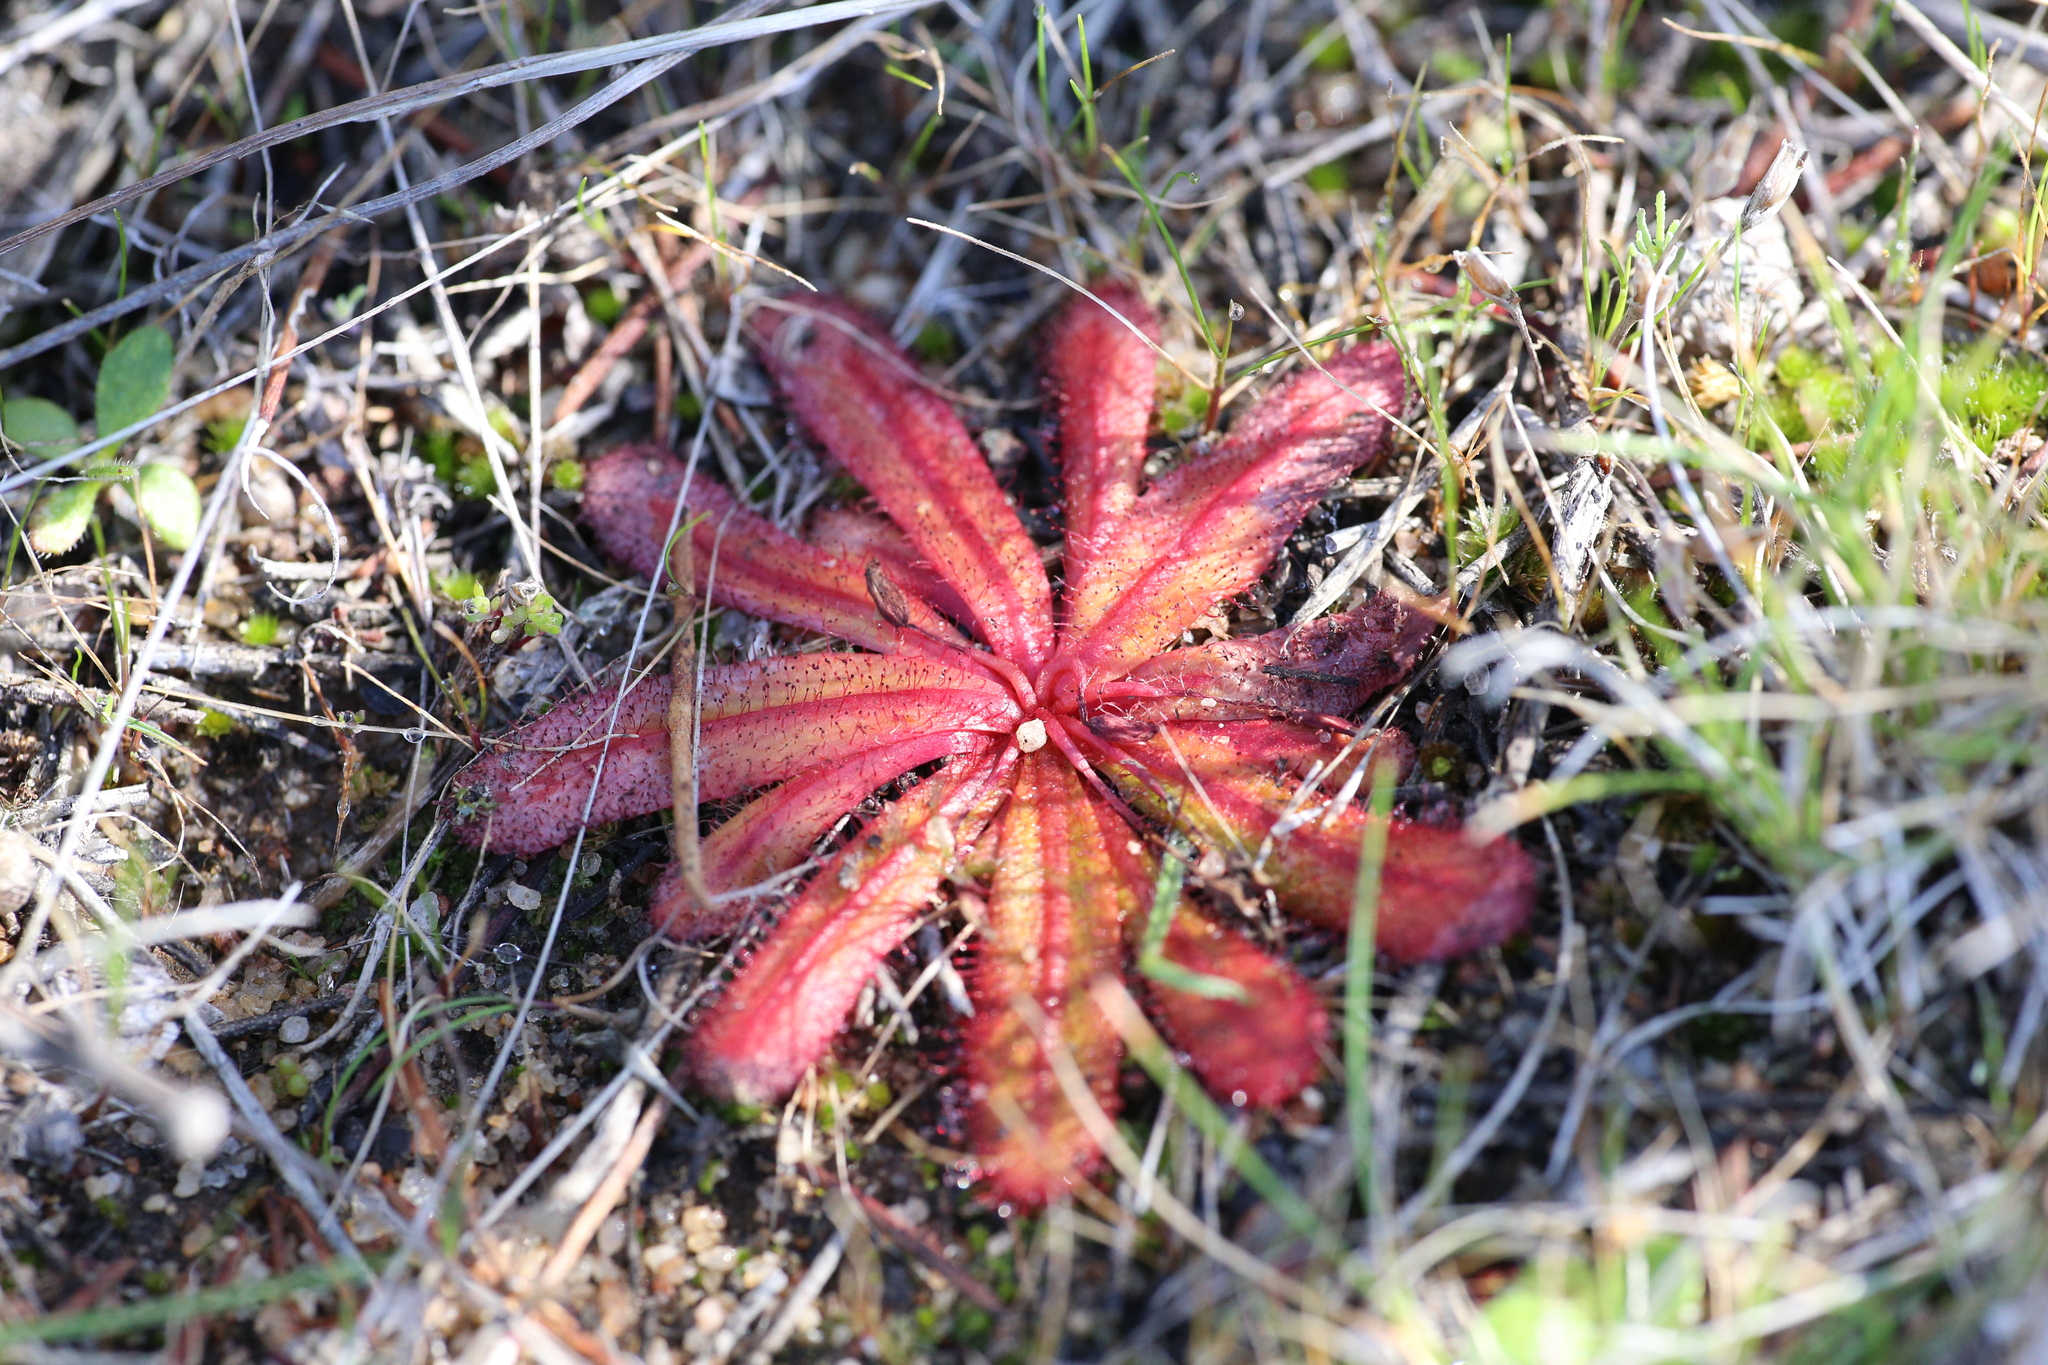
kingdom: Plantae
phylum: Tracheophyta
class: Magnoliopsida
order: Caryophyllales
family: Droseraceae
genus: Drosera
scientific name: Drosera bulbosa
